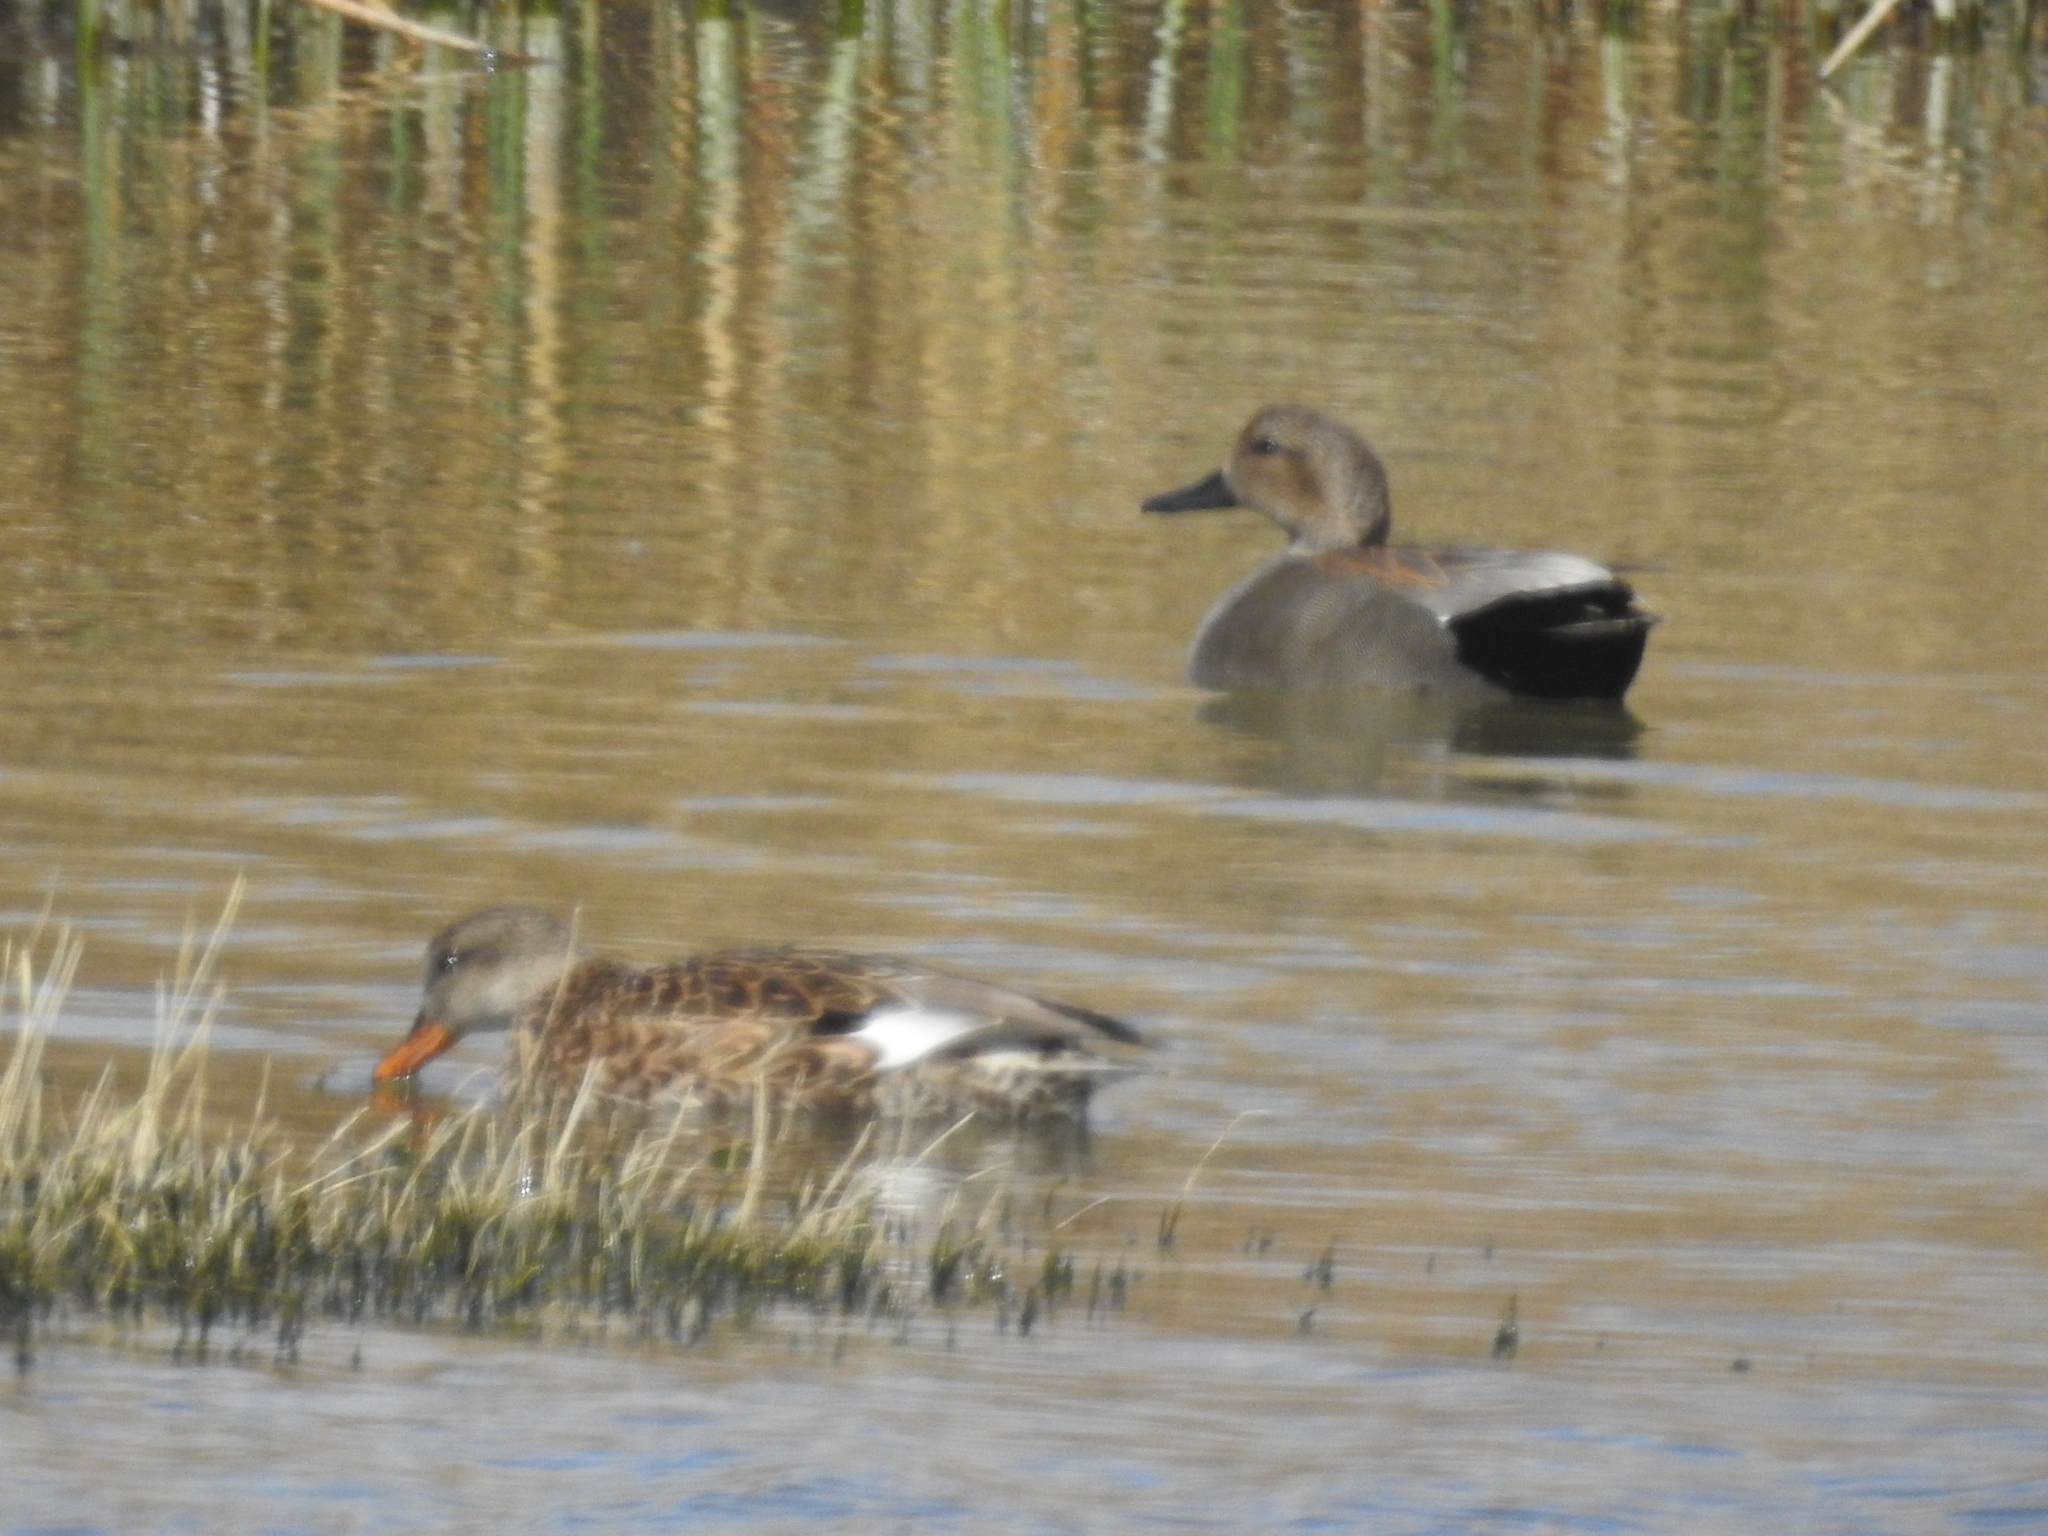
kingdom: Animalia
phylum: Chordata
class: Aves
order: Anseriformes
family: Anatidae
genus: Mareca
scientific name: Mareca strepera
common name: Gadwall
